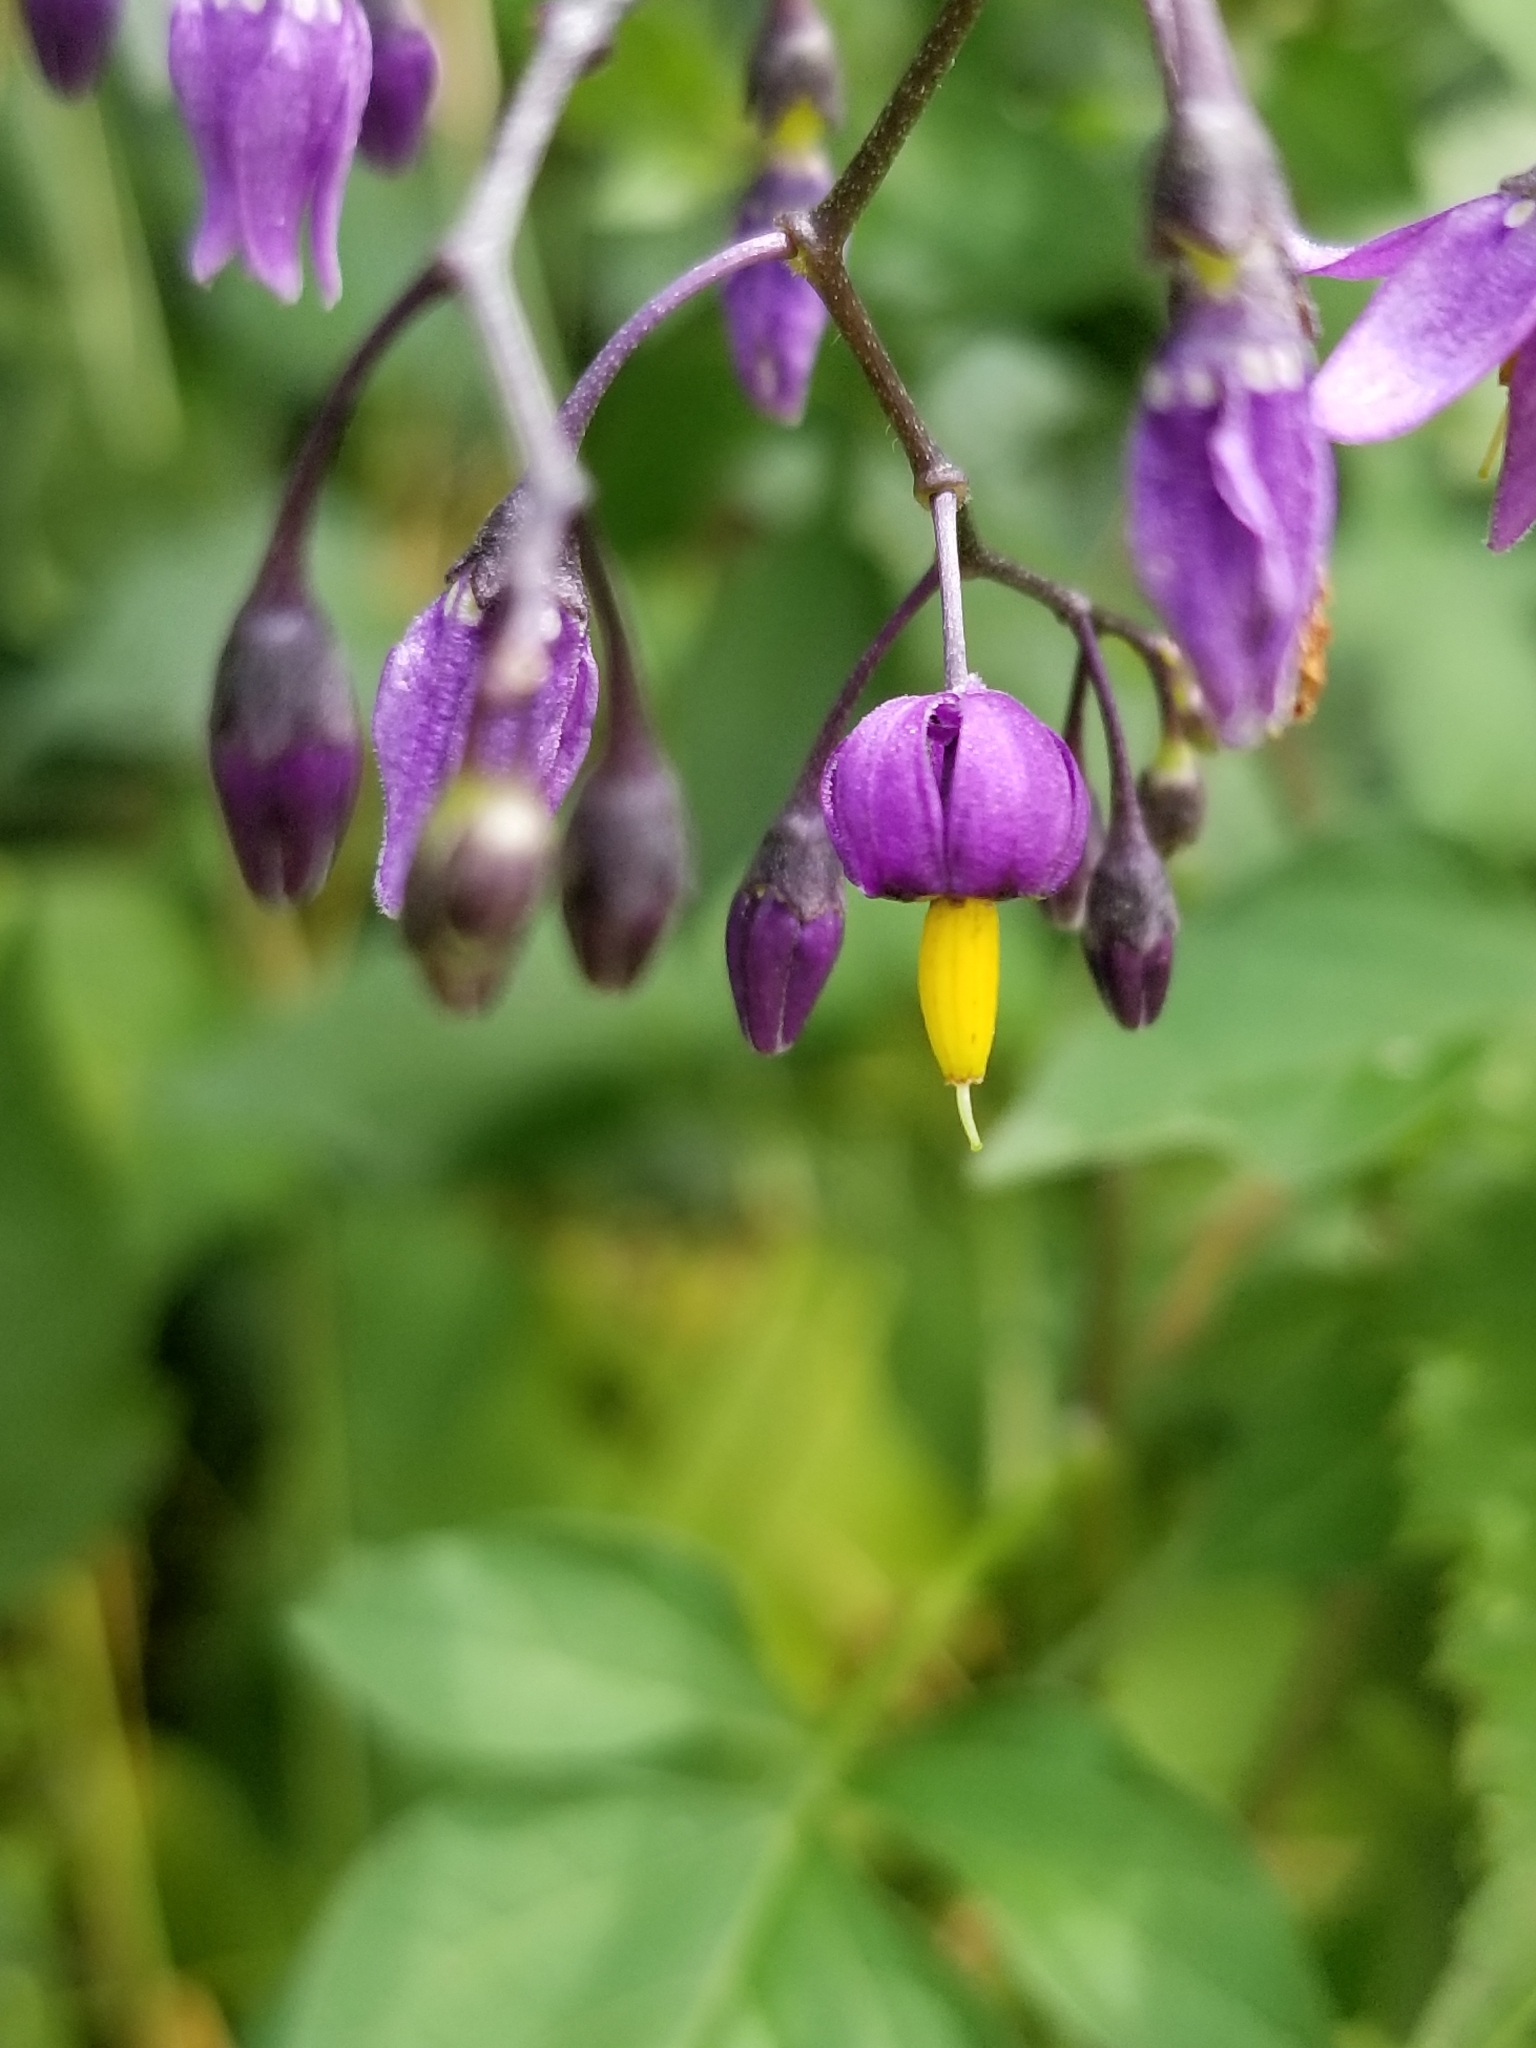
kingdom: Plantae
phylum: Tracheophyta
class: Magnoliopsida
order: Solanales
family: Solanaceae
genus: Solanum
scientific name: Solanum dulcamara
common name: Climbing nightshade
